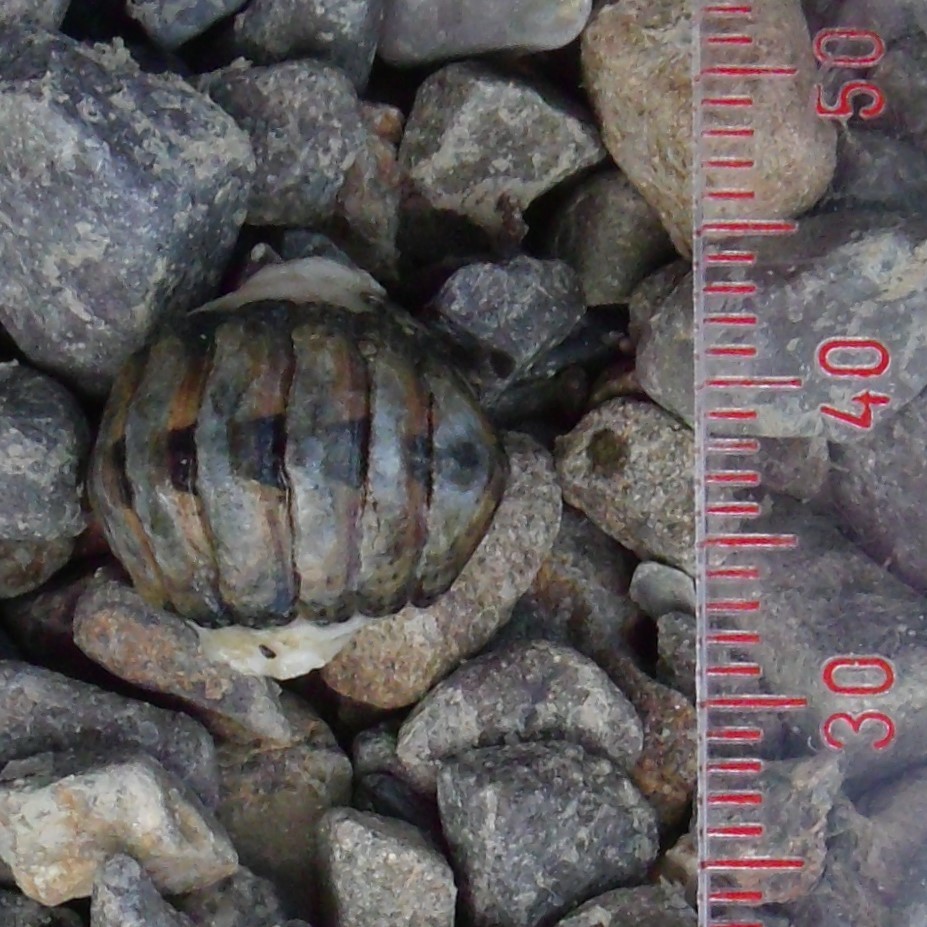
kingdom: Animalia
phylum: Mollusca
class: Polyplacophora
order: Chitonida
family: Chitonidae
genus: Sypharochiton
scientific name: Sypharochiton pelliserpentis
